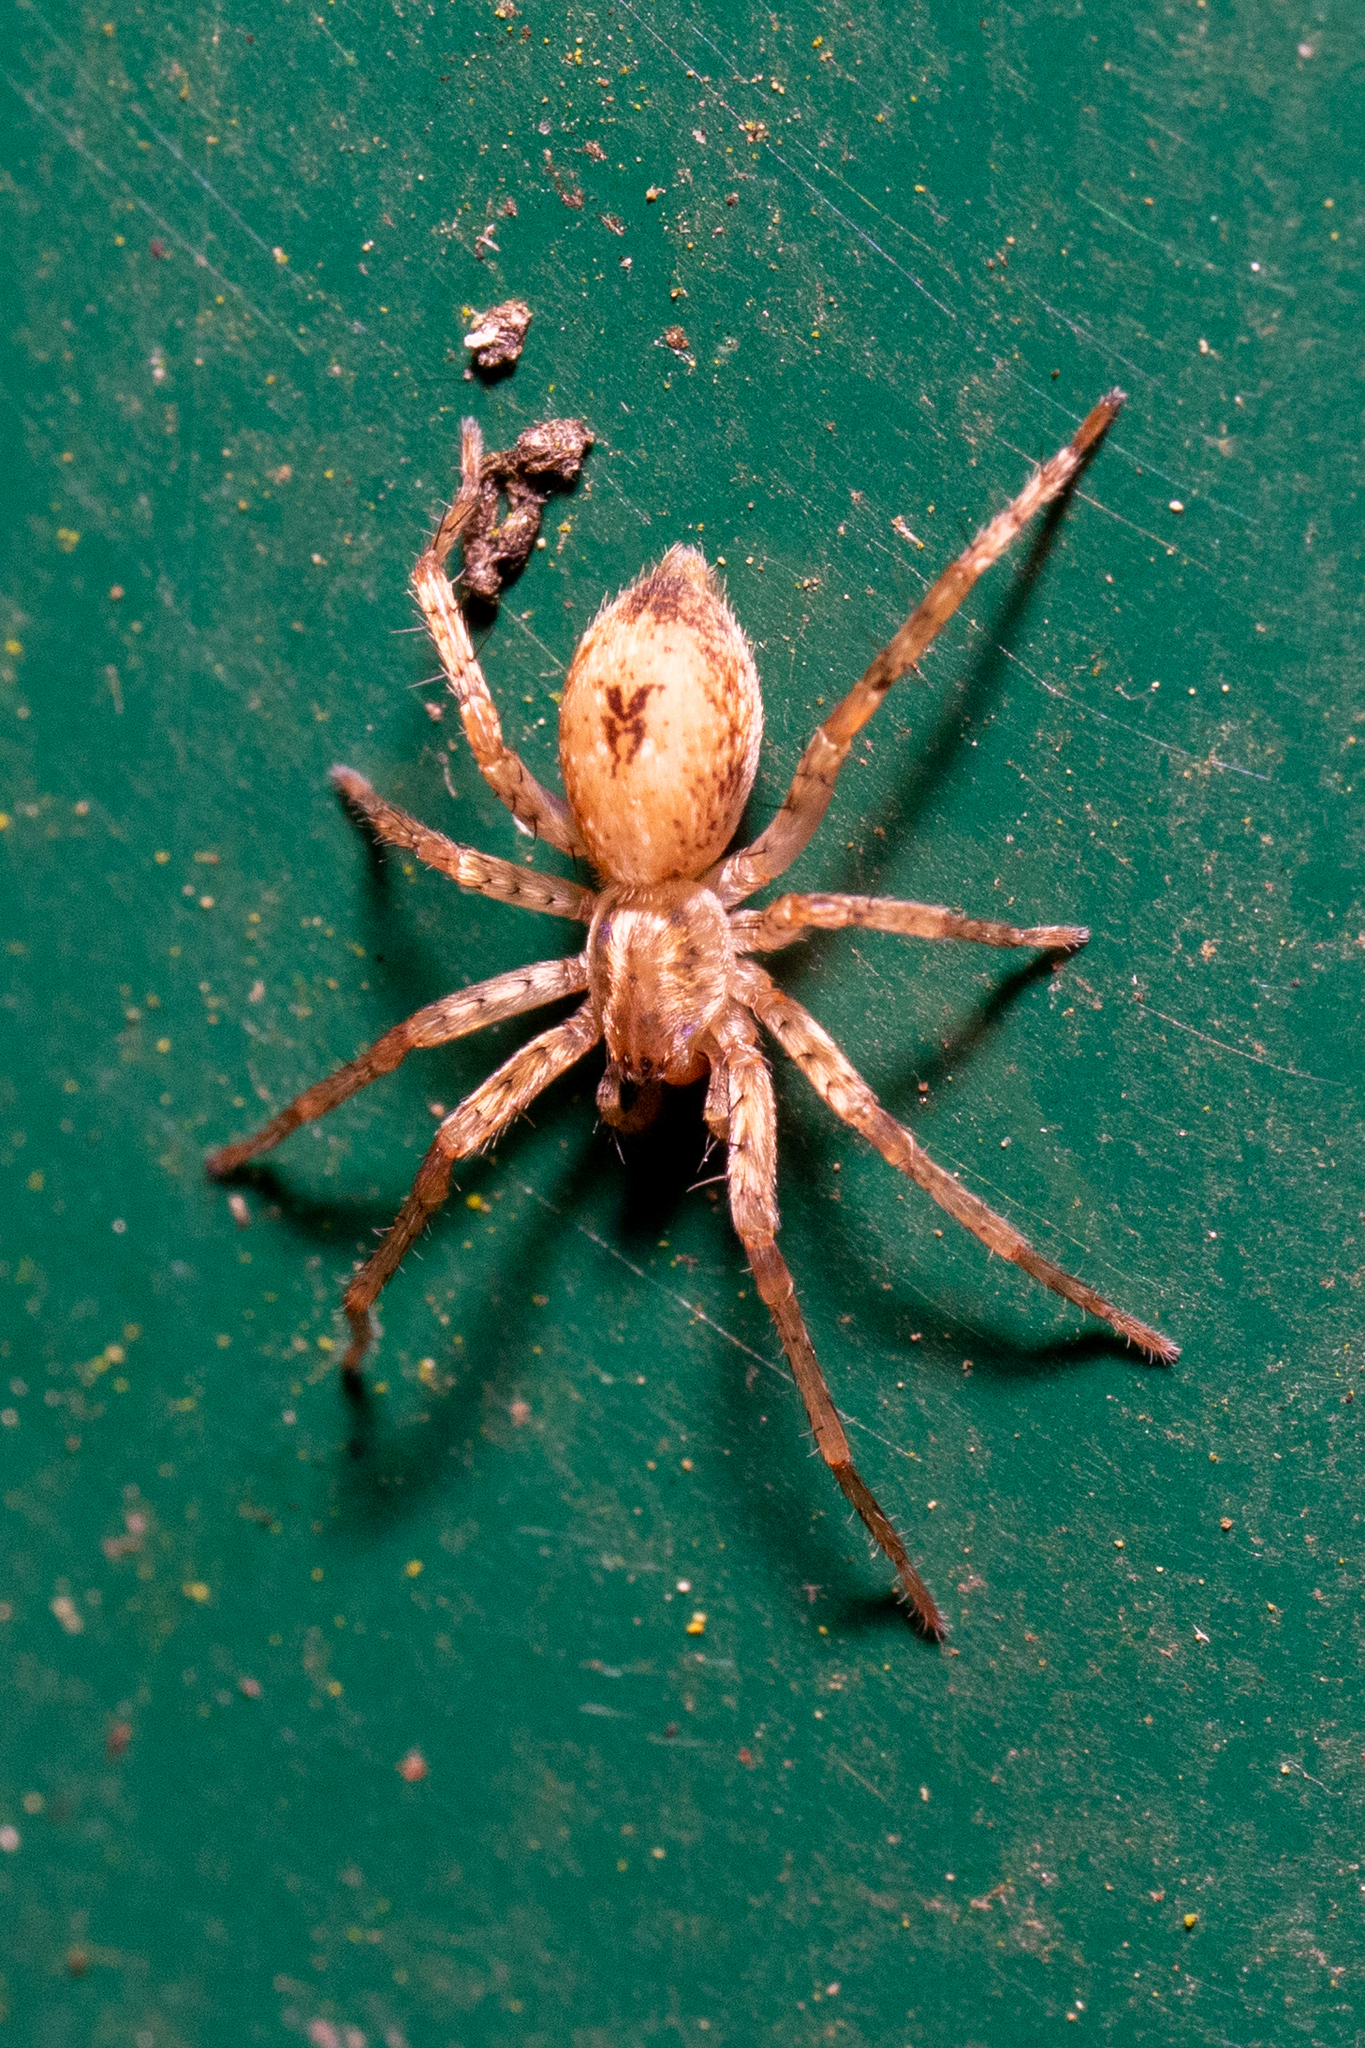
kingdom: Animalia
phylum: Arthropoda
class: Arachnida
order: Araneae
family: Anyphaenidae
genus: Anyphaena
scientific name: Anyphaena accentuata
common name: Buzzing spider
